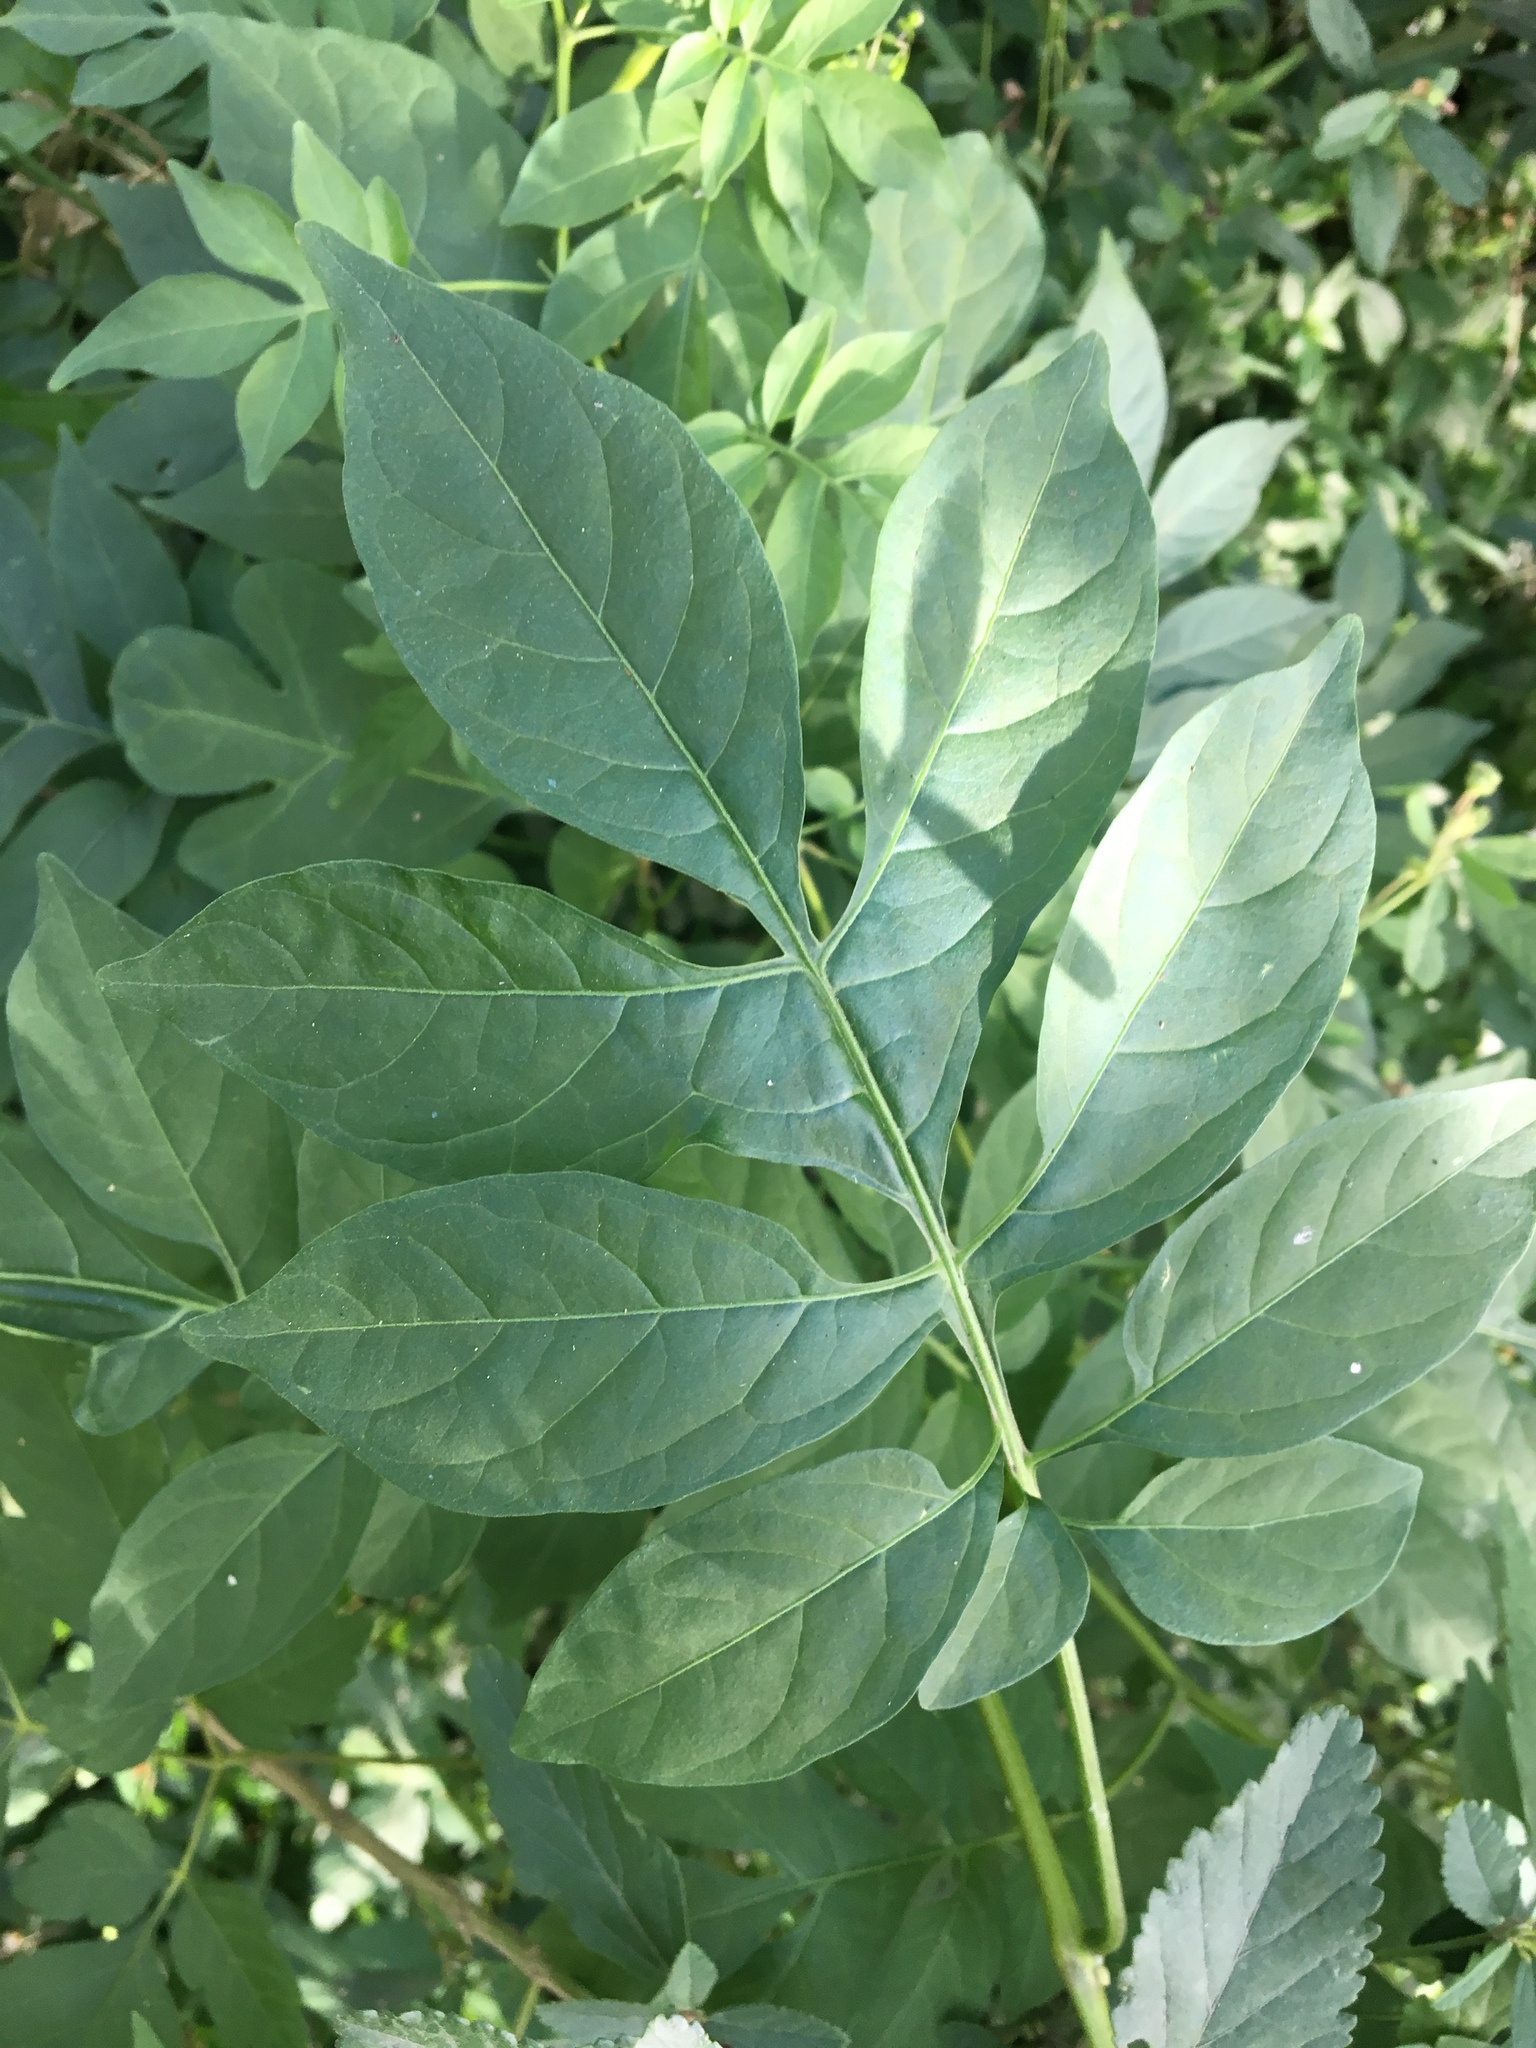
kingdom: Plantae
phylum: Tracheophyta
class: Magnoliopsida
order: Solanales
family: Solanaceae
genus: Solanum
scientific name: Solanum seaforthianum
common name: Brazilian nightshade
